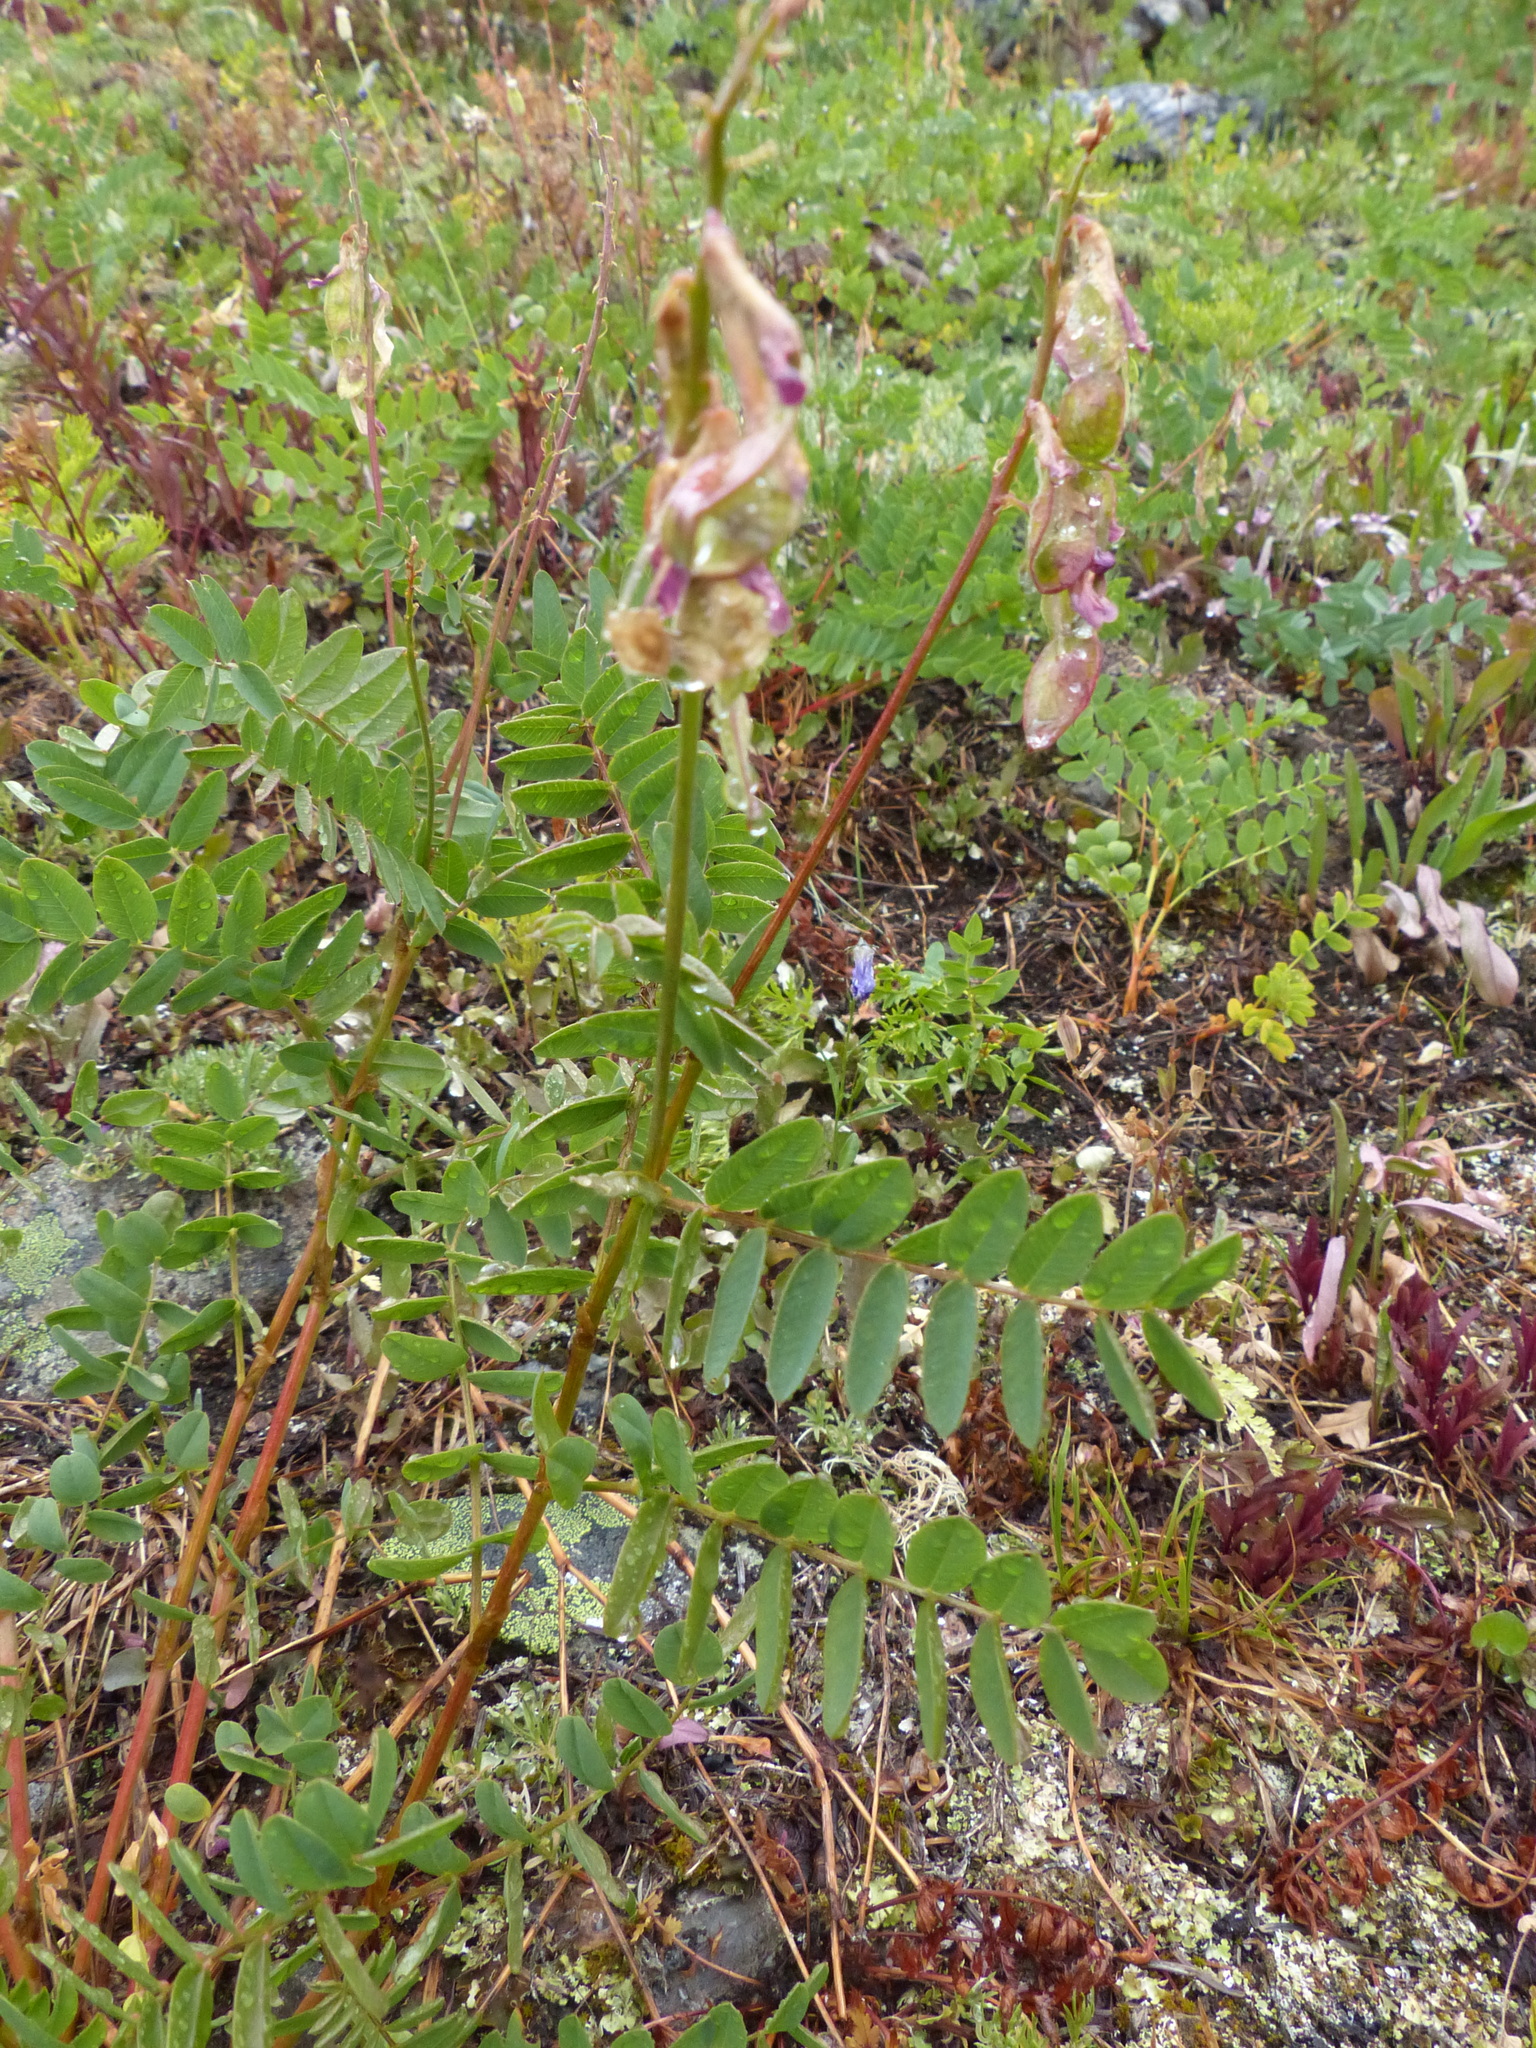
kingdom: Plantae
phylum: Tracheophyta
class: Magnoliopsida
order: Fabales
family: Fabaceae
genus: Hedysarum
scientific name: Hedysarum occidentale
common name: Western hedysarum
